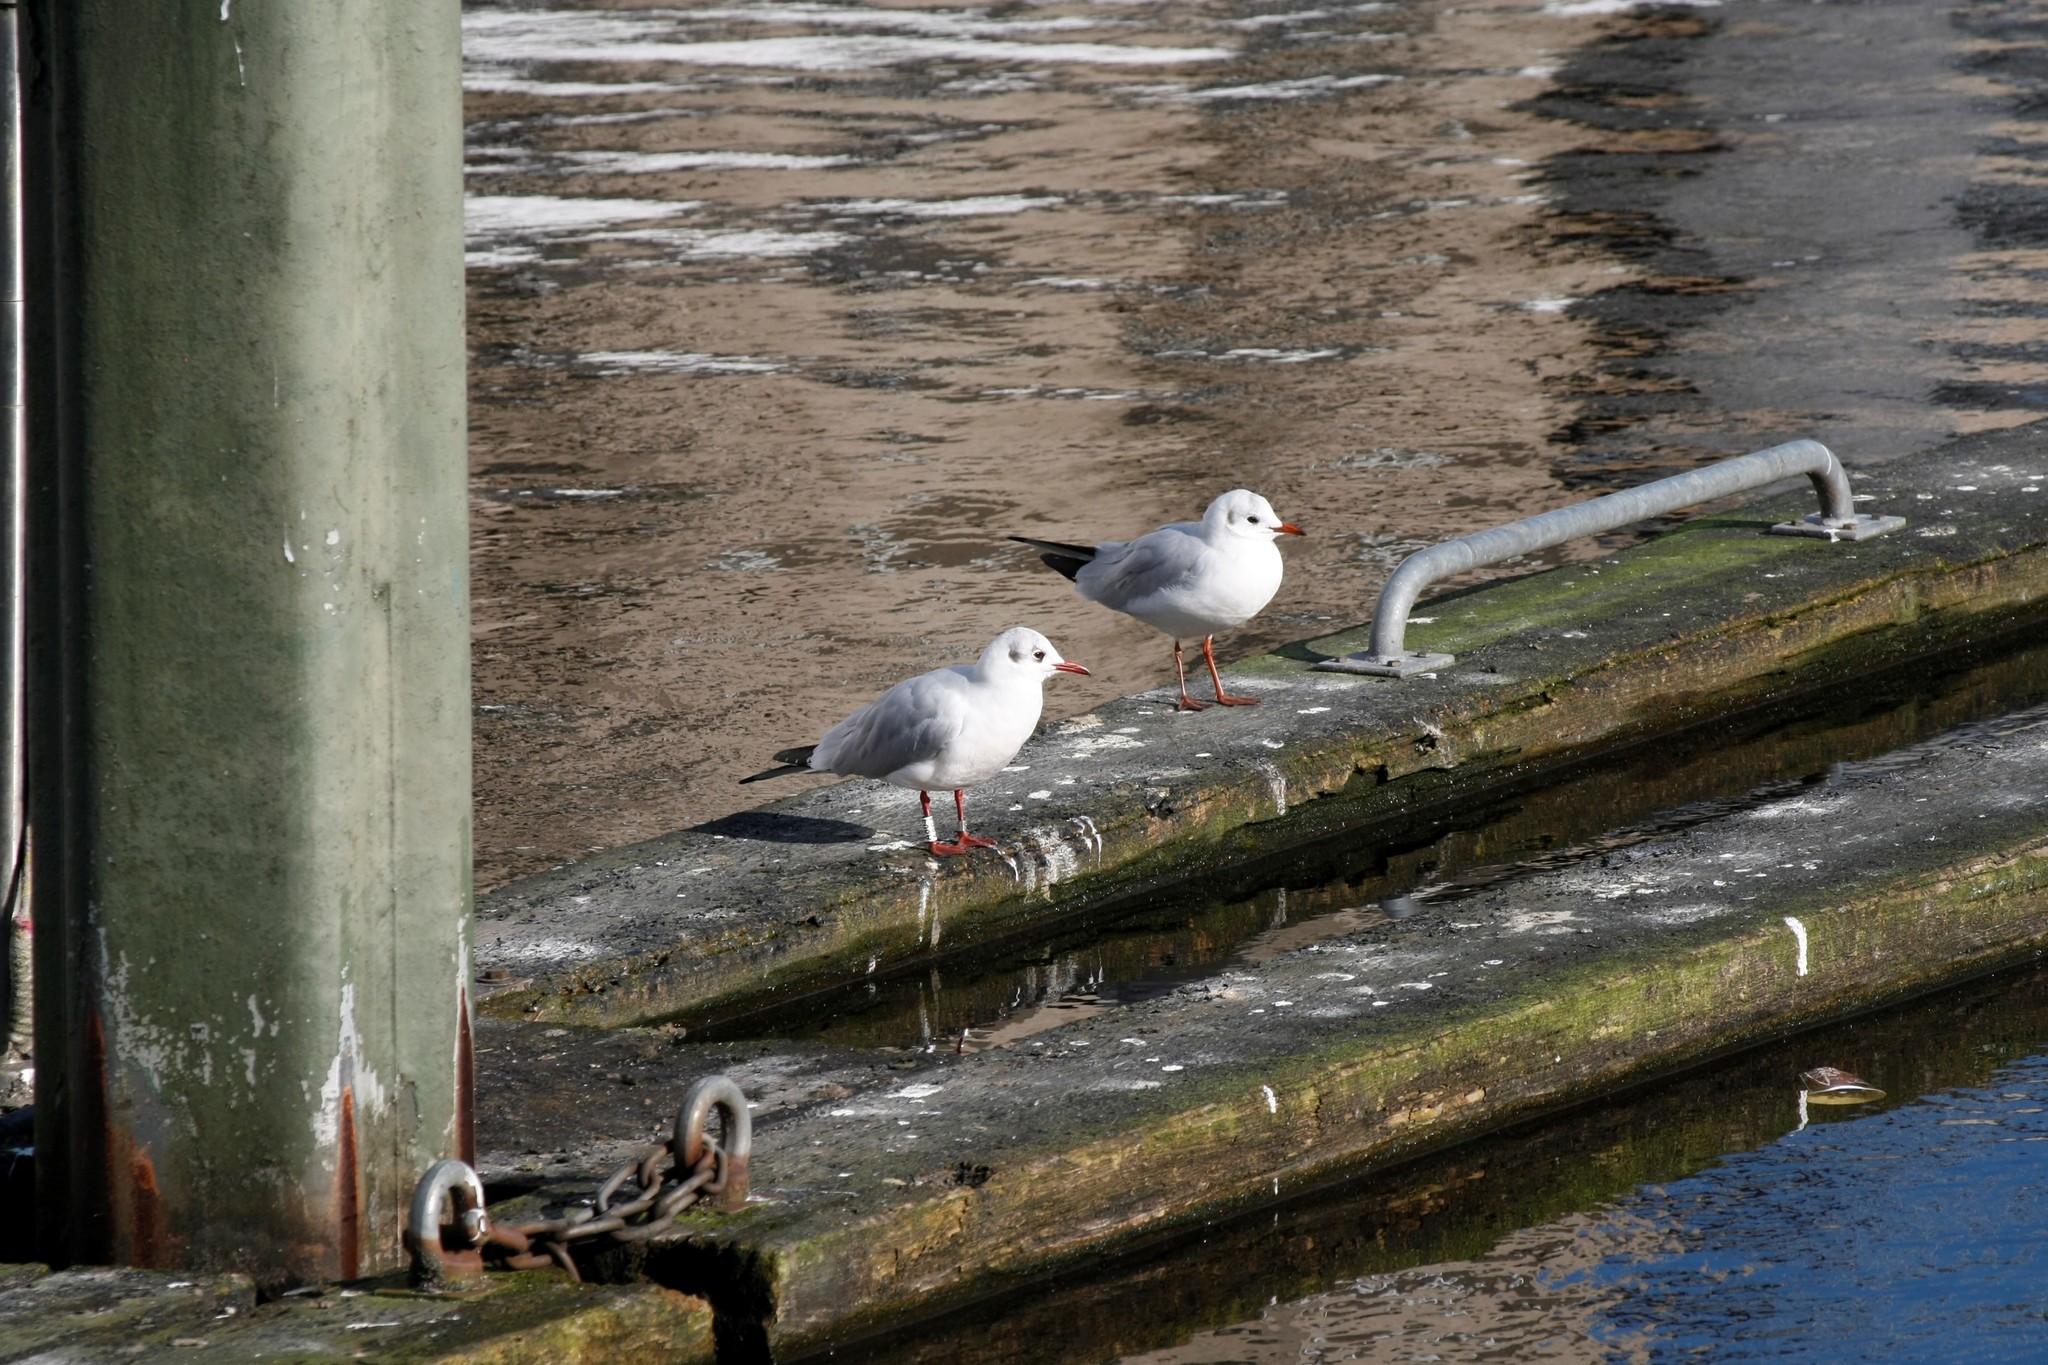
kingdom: Animalia
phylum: Chordata
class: Aves
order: Charadriiformes
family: Laridae
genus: Chroicocephalus
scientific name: Chroicocephalus ridibundus
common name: Black-headed gull
